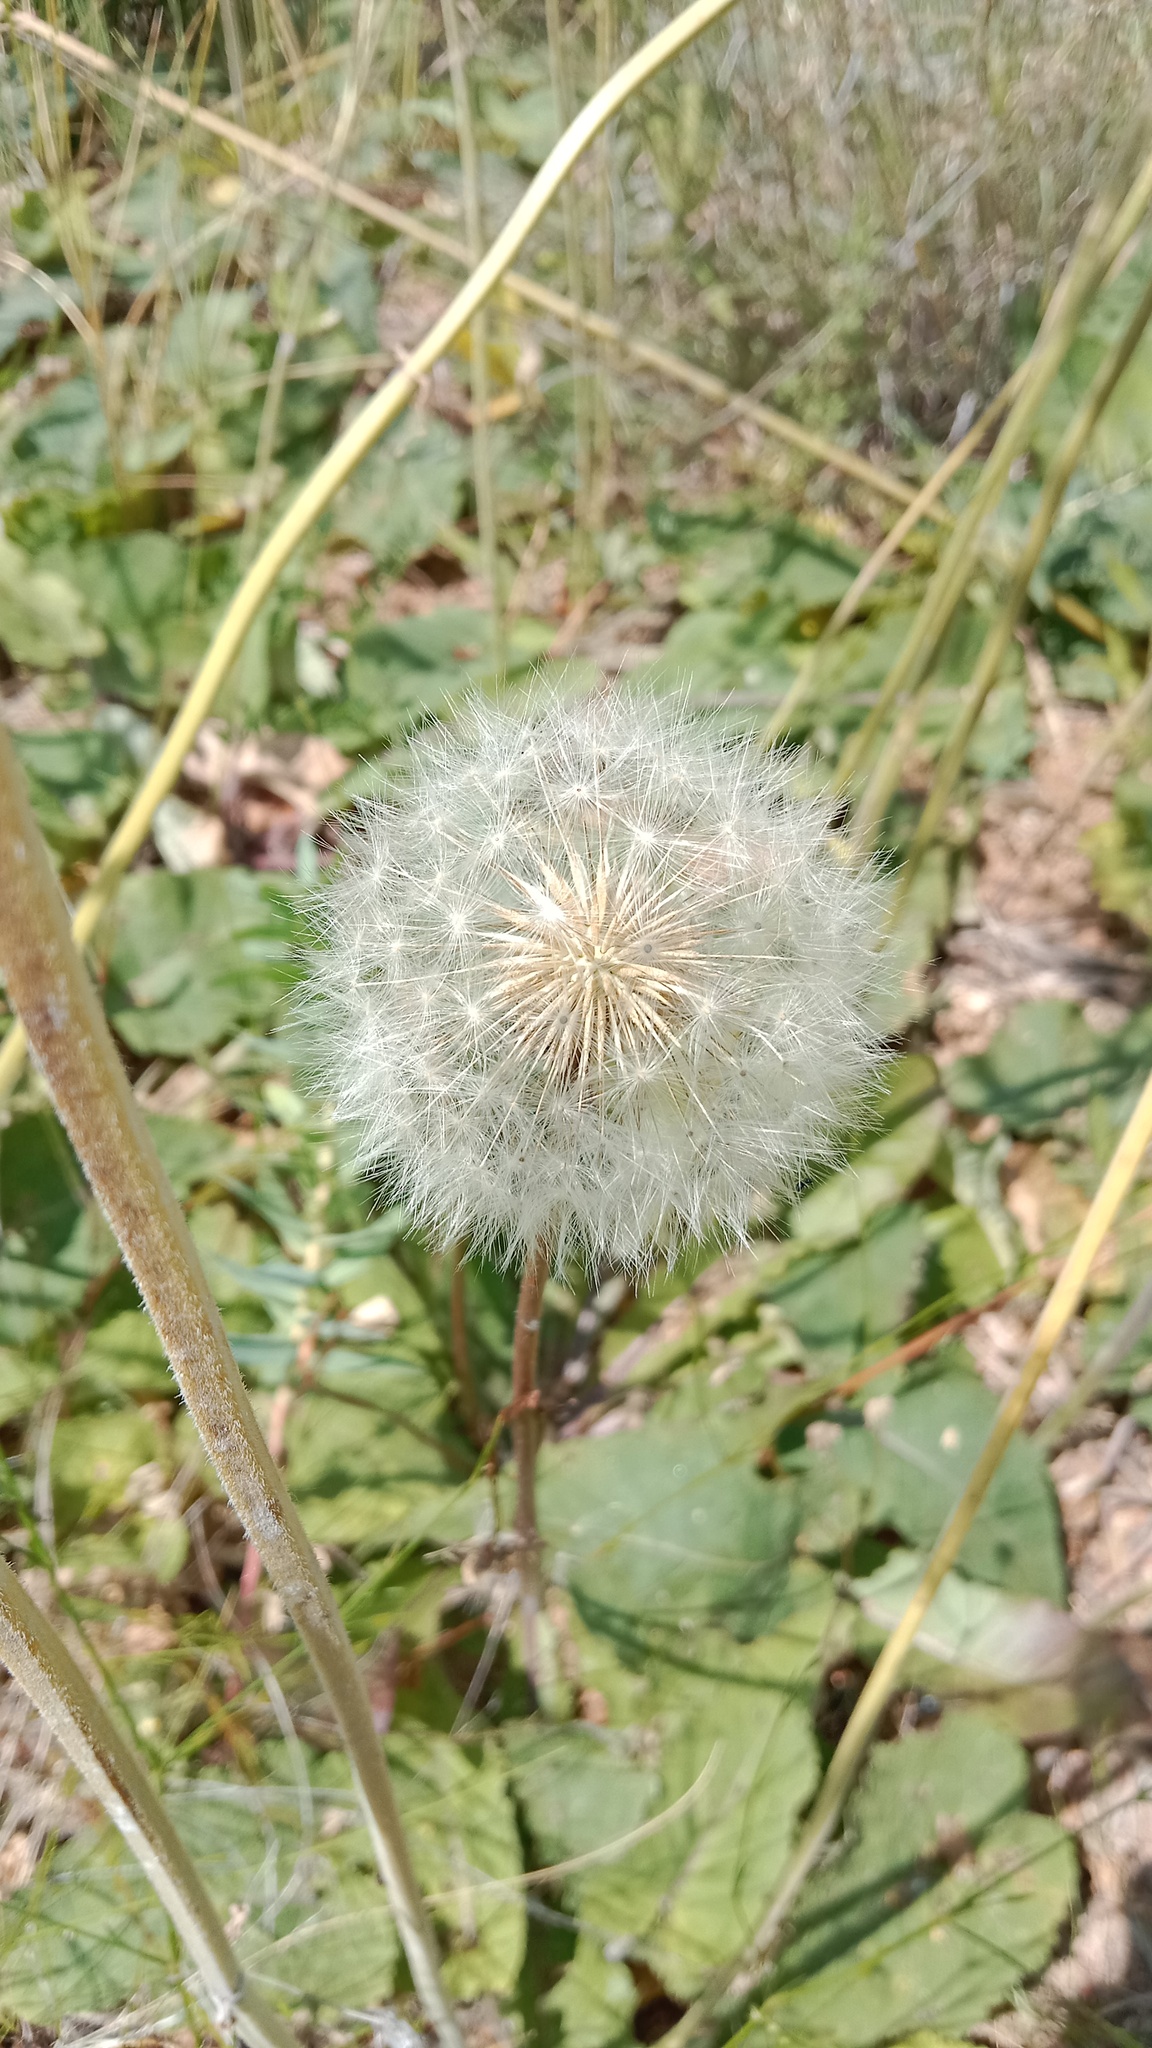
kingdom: Plantae
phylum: Tracheophyta
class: Magnoliopsida
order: Asterales
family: Asteraceae
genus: Taraxacum
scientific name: Taraxacum serotinum
